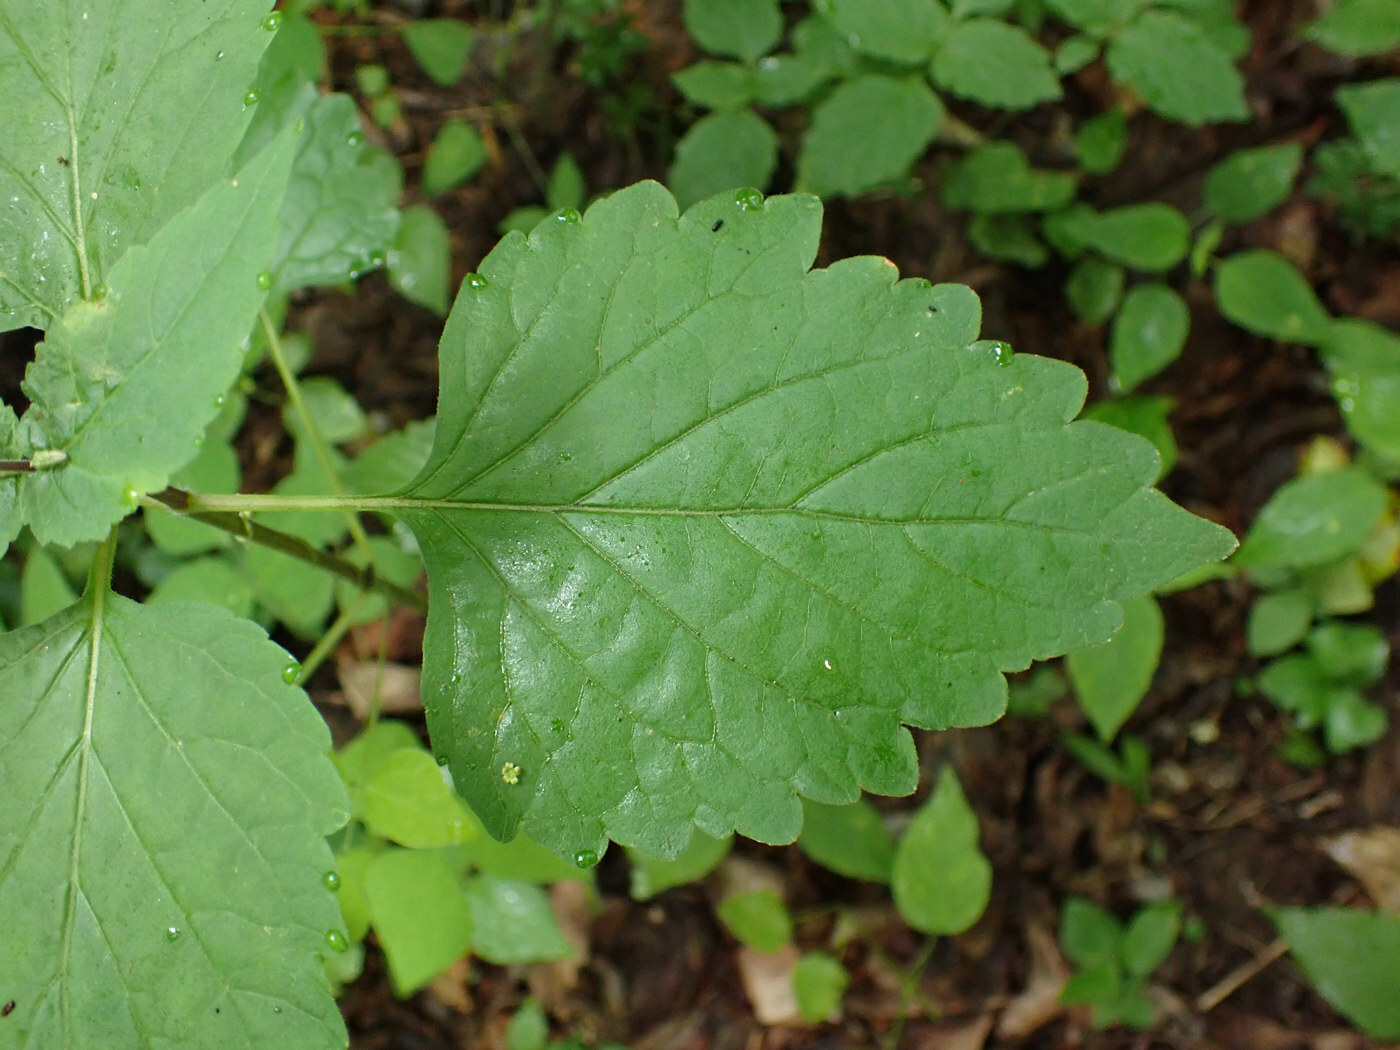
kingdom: Plantae
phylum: Tracheophyta
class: Magnoliopsida
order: Lamiales
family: Phrymaceae
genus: Phryma
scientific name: Phryma leptostachya
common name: American lopseed
